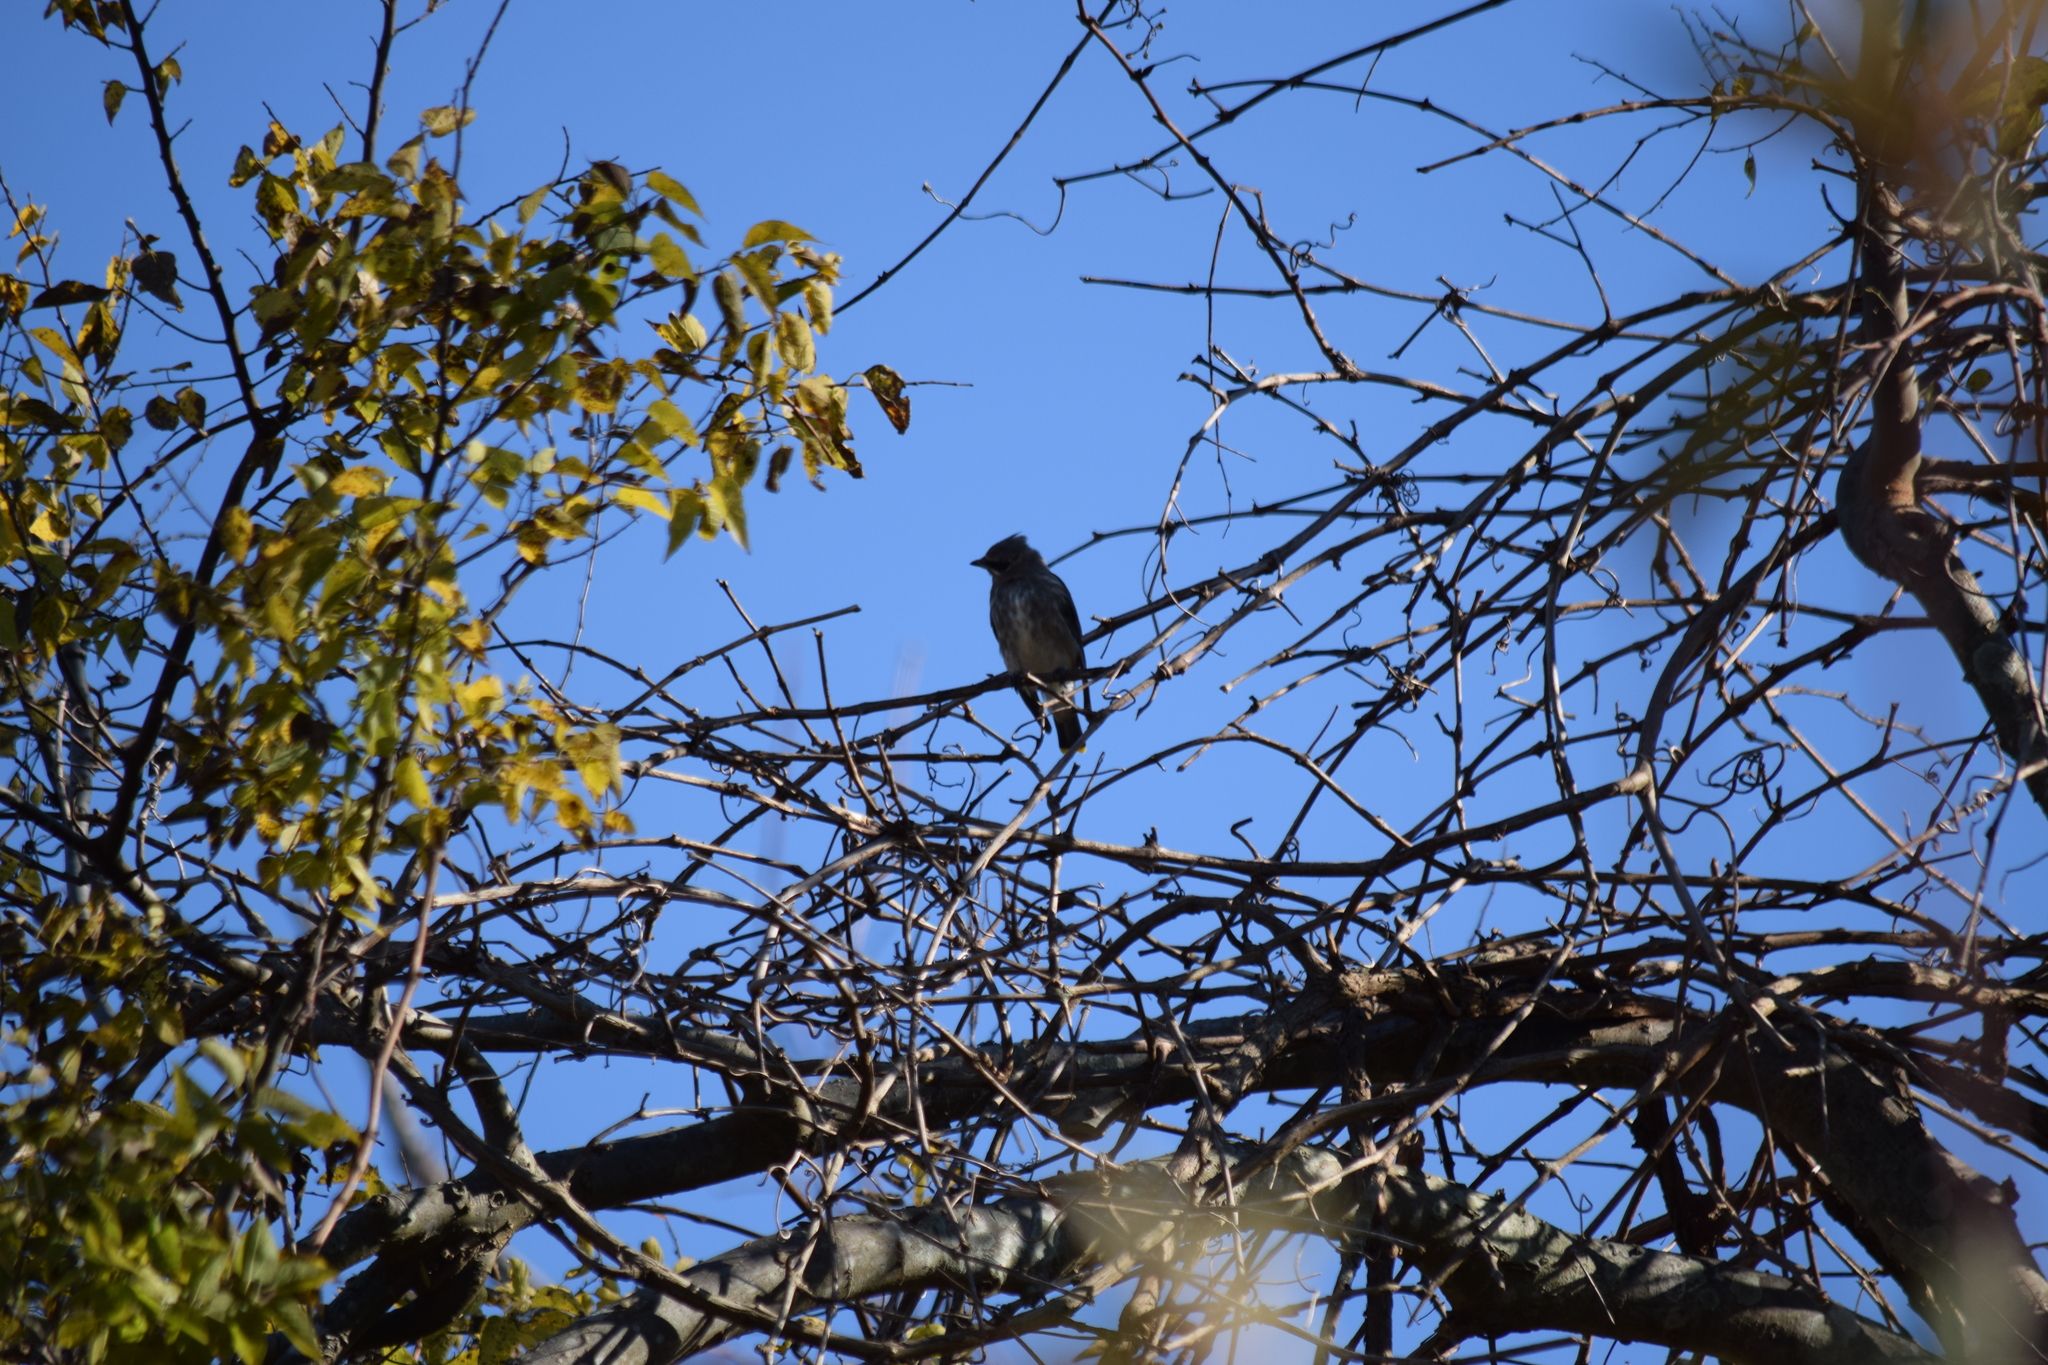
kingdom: Animalia
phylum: Chordata
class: Aves
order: Passeriformes
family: Bombycillidae
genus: Bombycilla
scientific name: Bombycilla cedrorum
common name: Cedar waxwing
